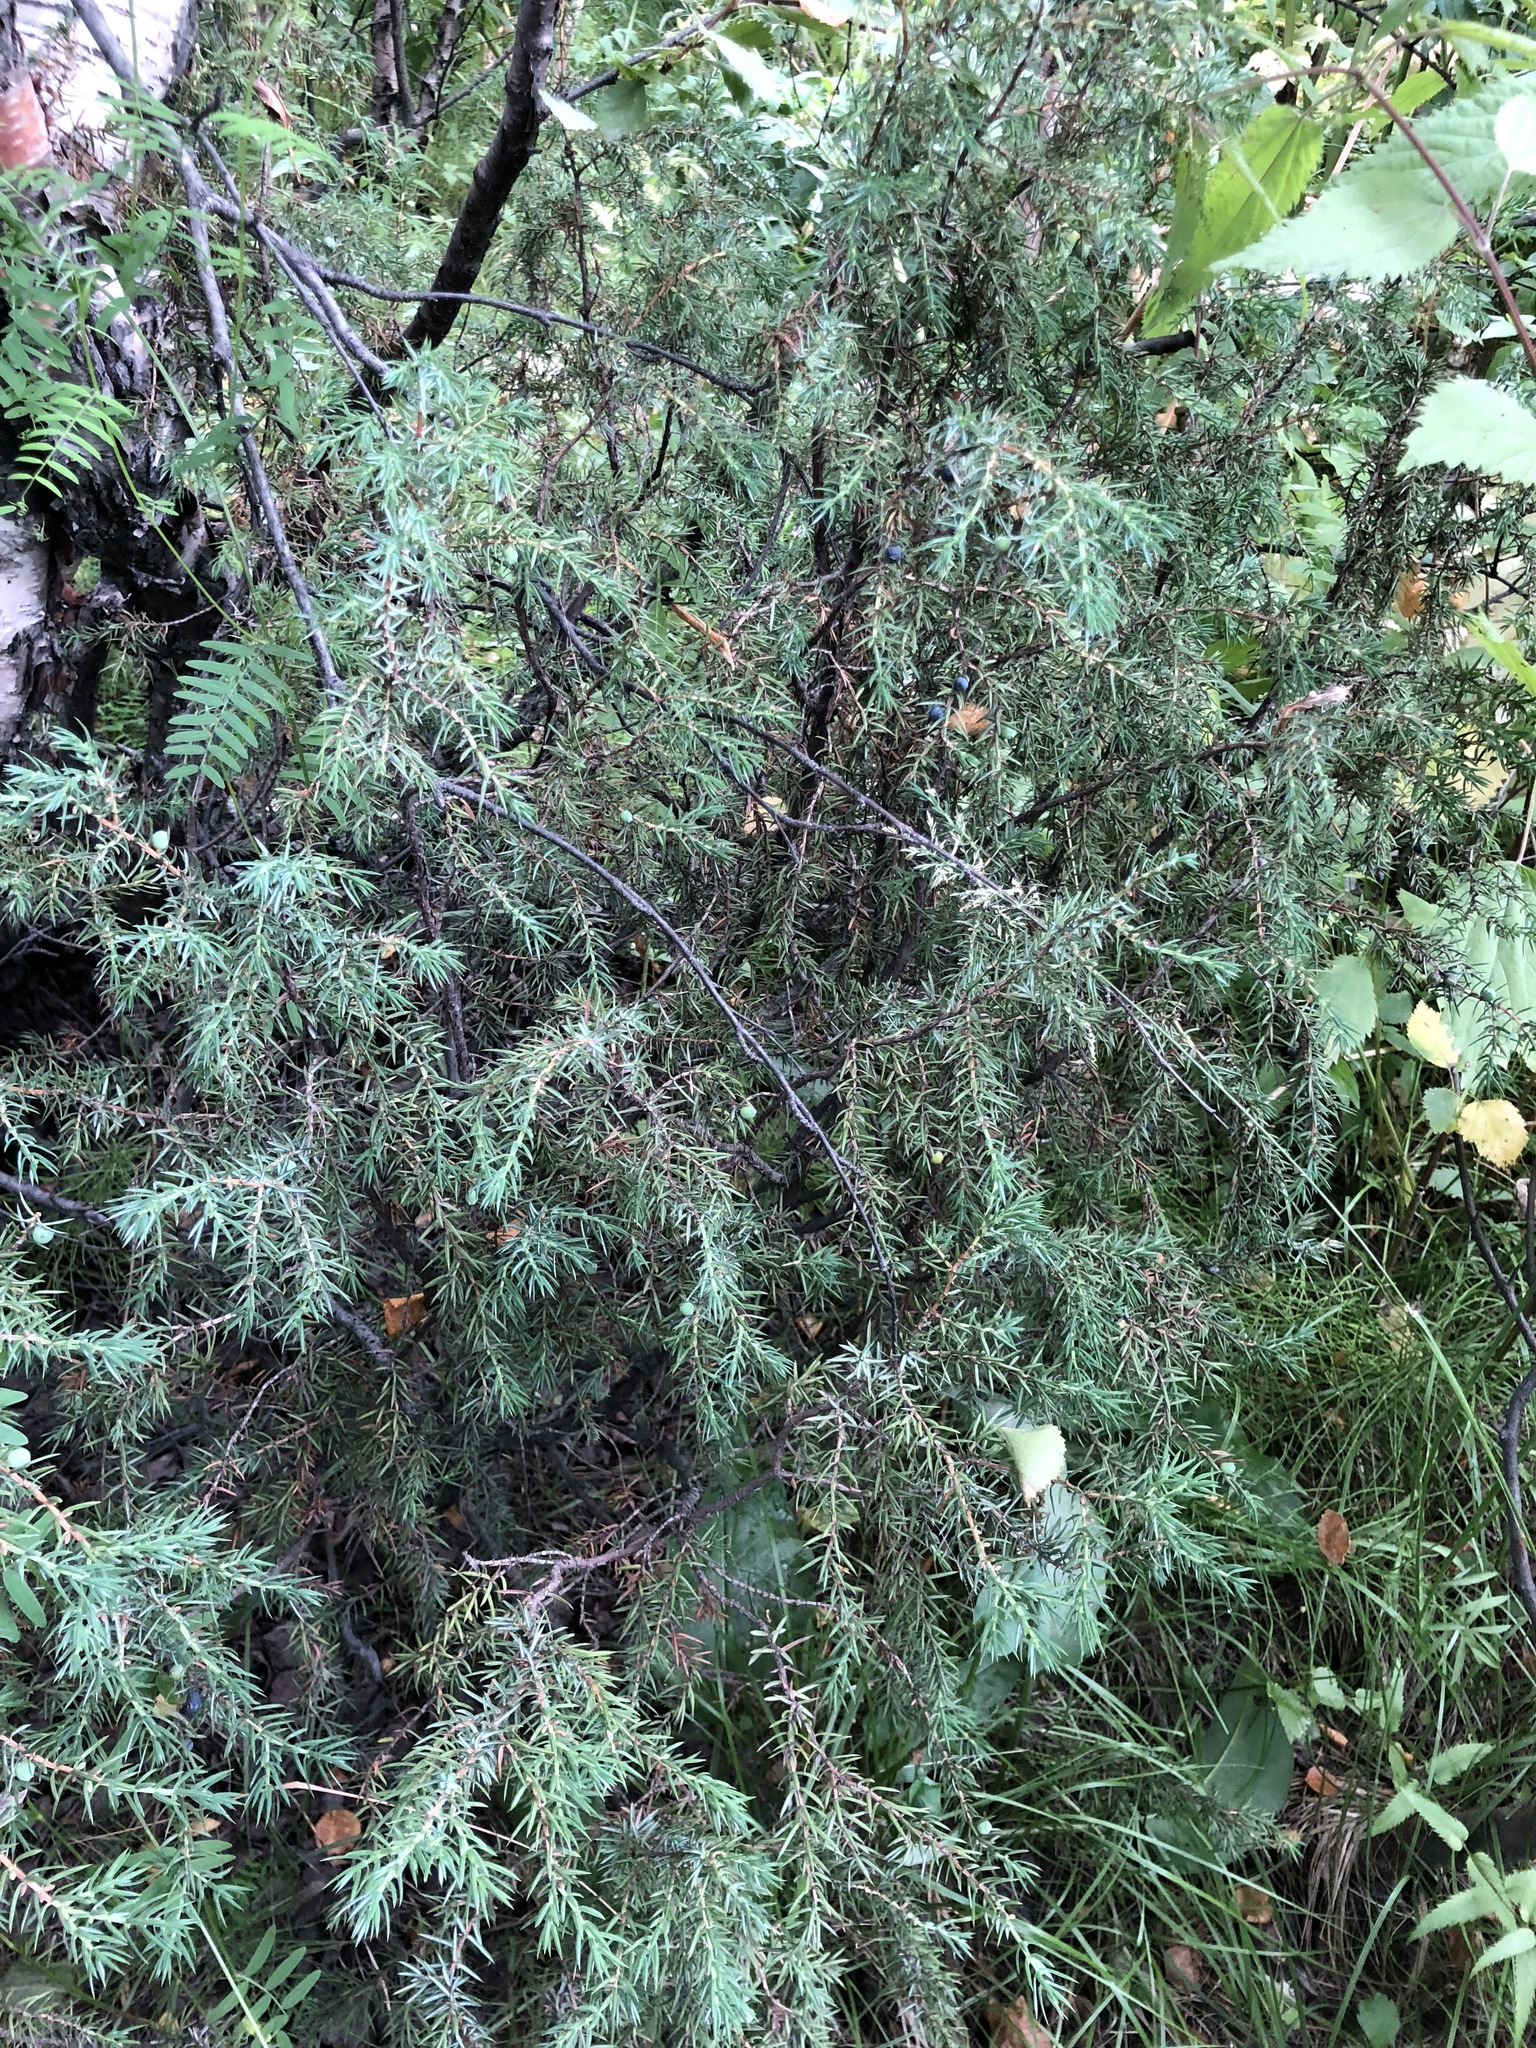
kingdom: Plantae
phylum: Tracheophyta
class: Pinopsida
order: Pinales
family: Cupressaceae
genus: Juniperus
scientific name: Juniperus communis
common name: Common juniper
